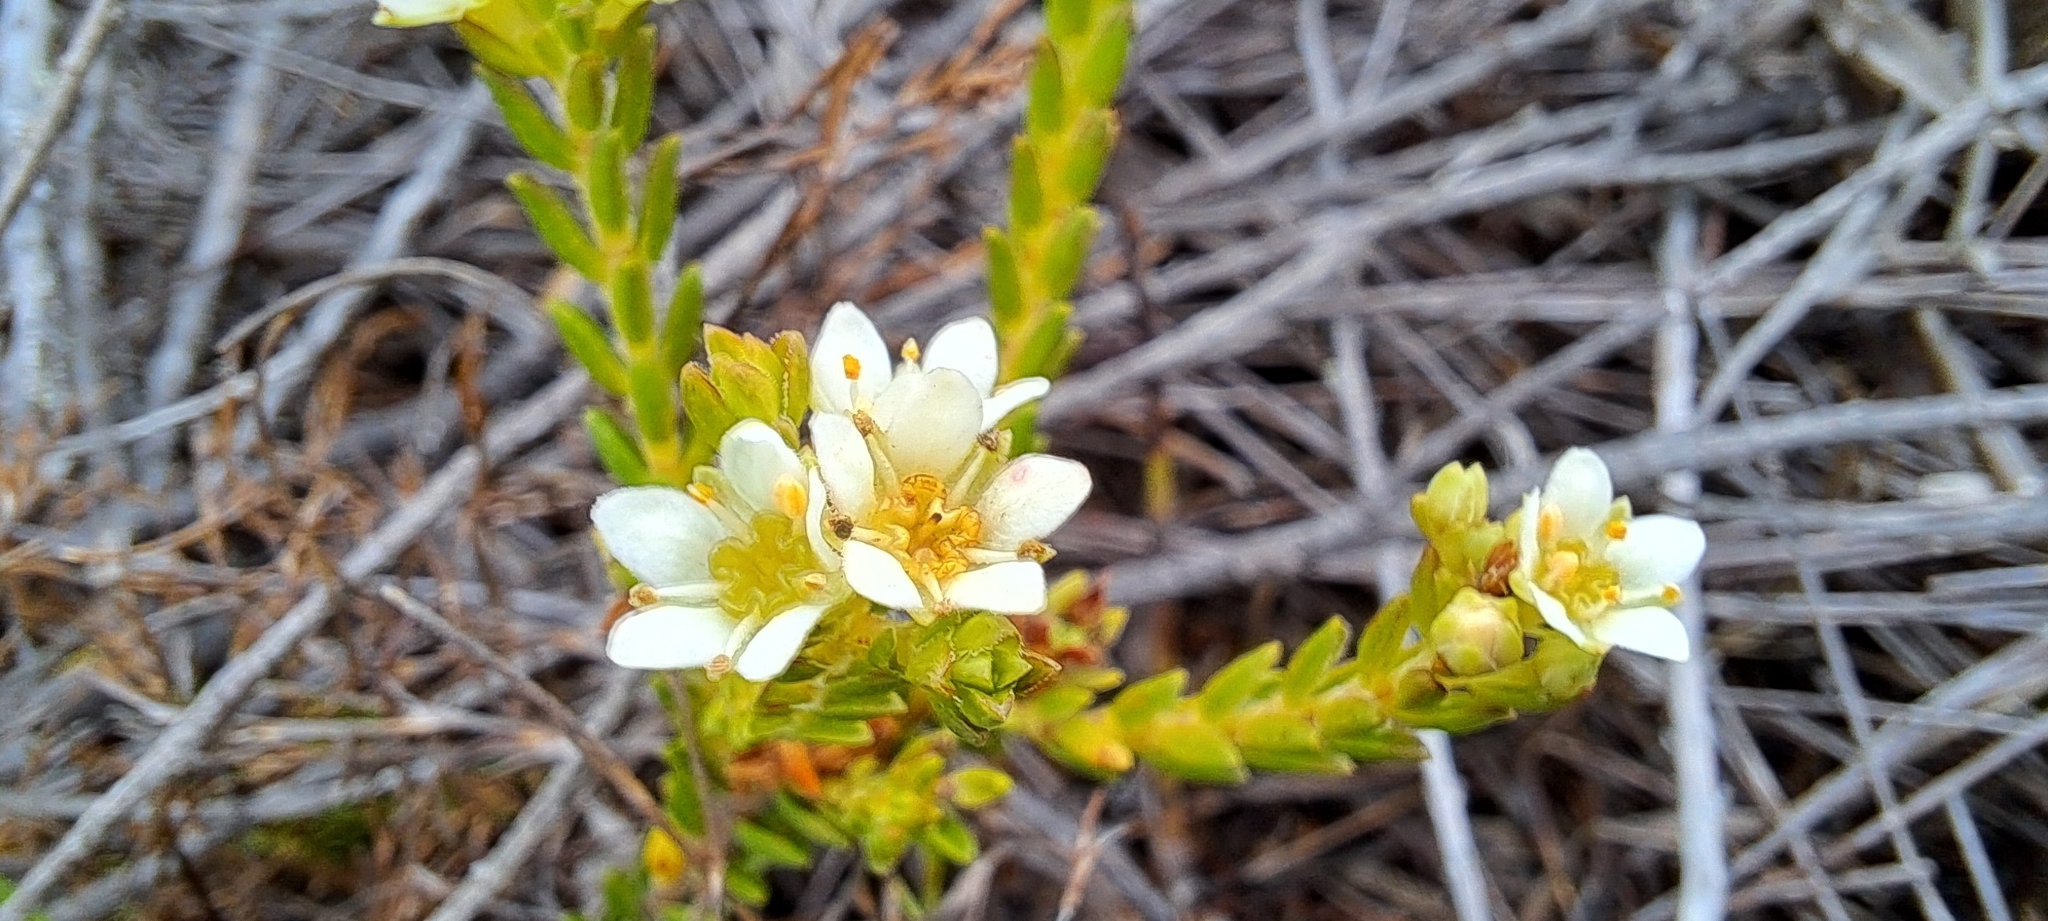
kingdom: Plantae
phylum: Tracheophyta
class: Magnoliopsida
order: Sapindales
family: Rutaceae
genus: Diosma
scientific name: Diosma oppositifolia
